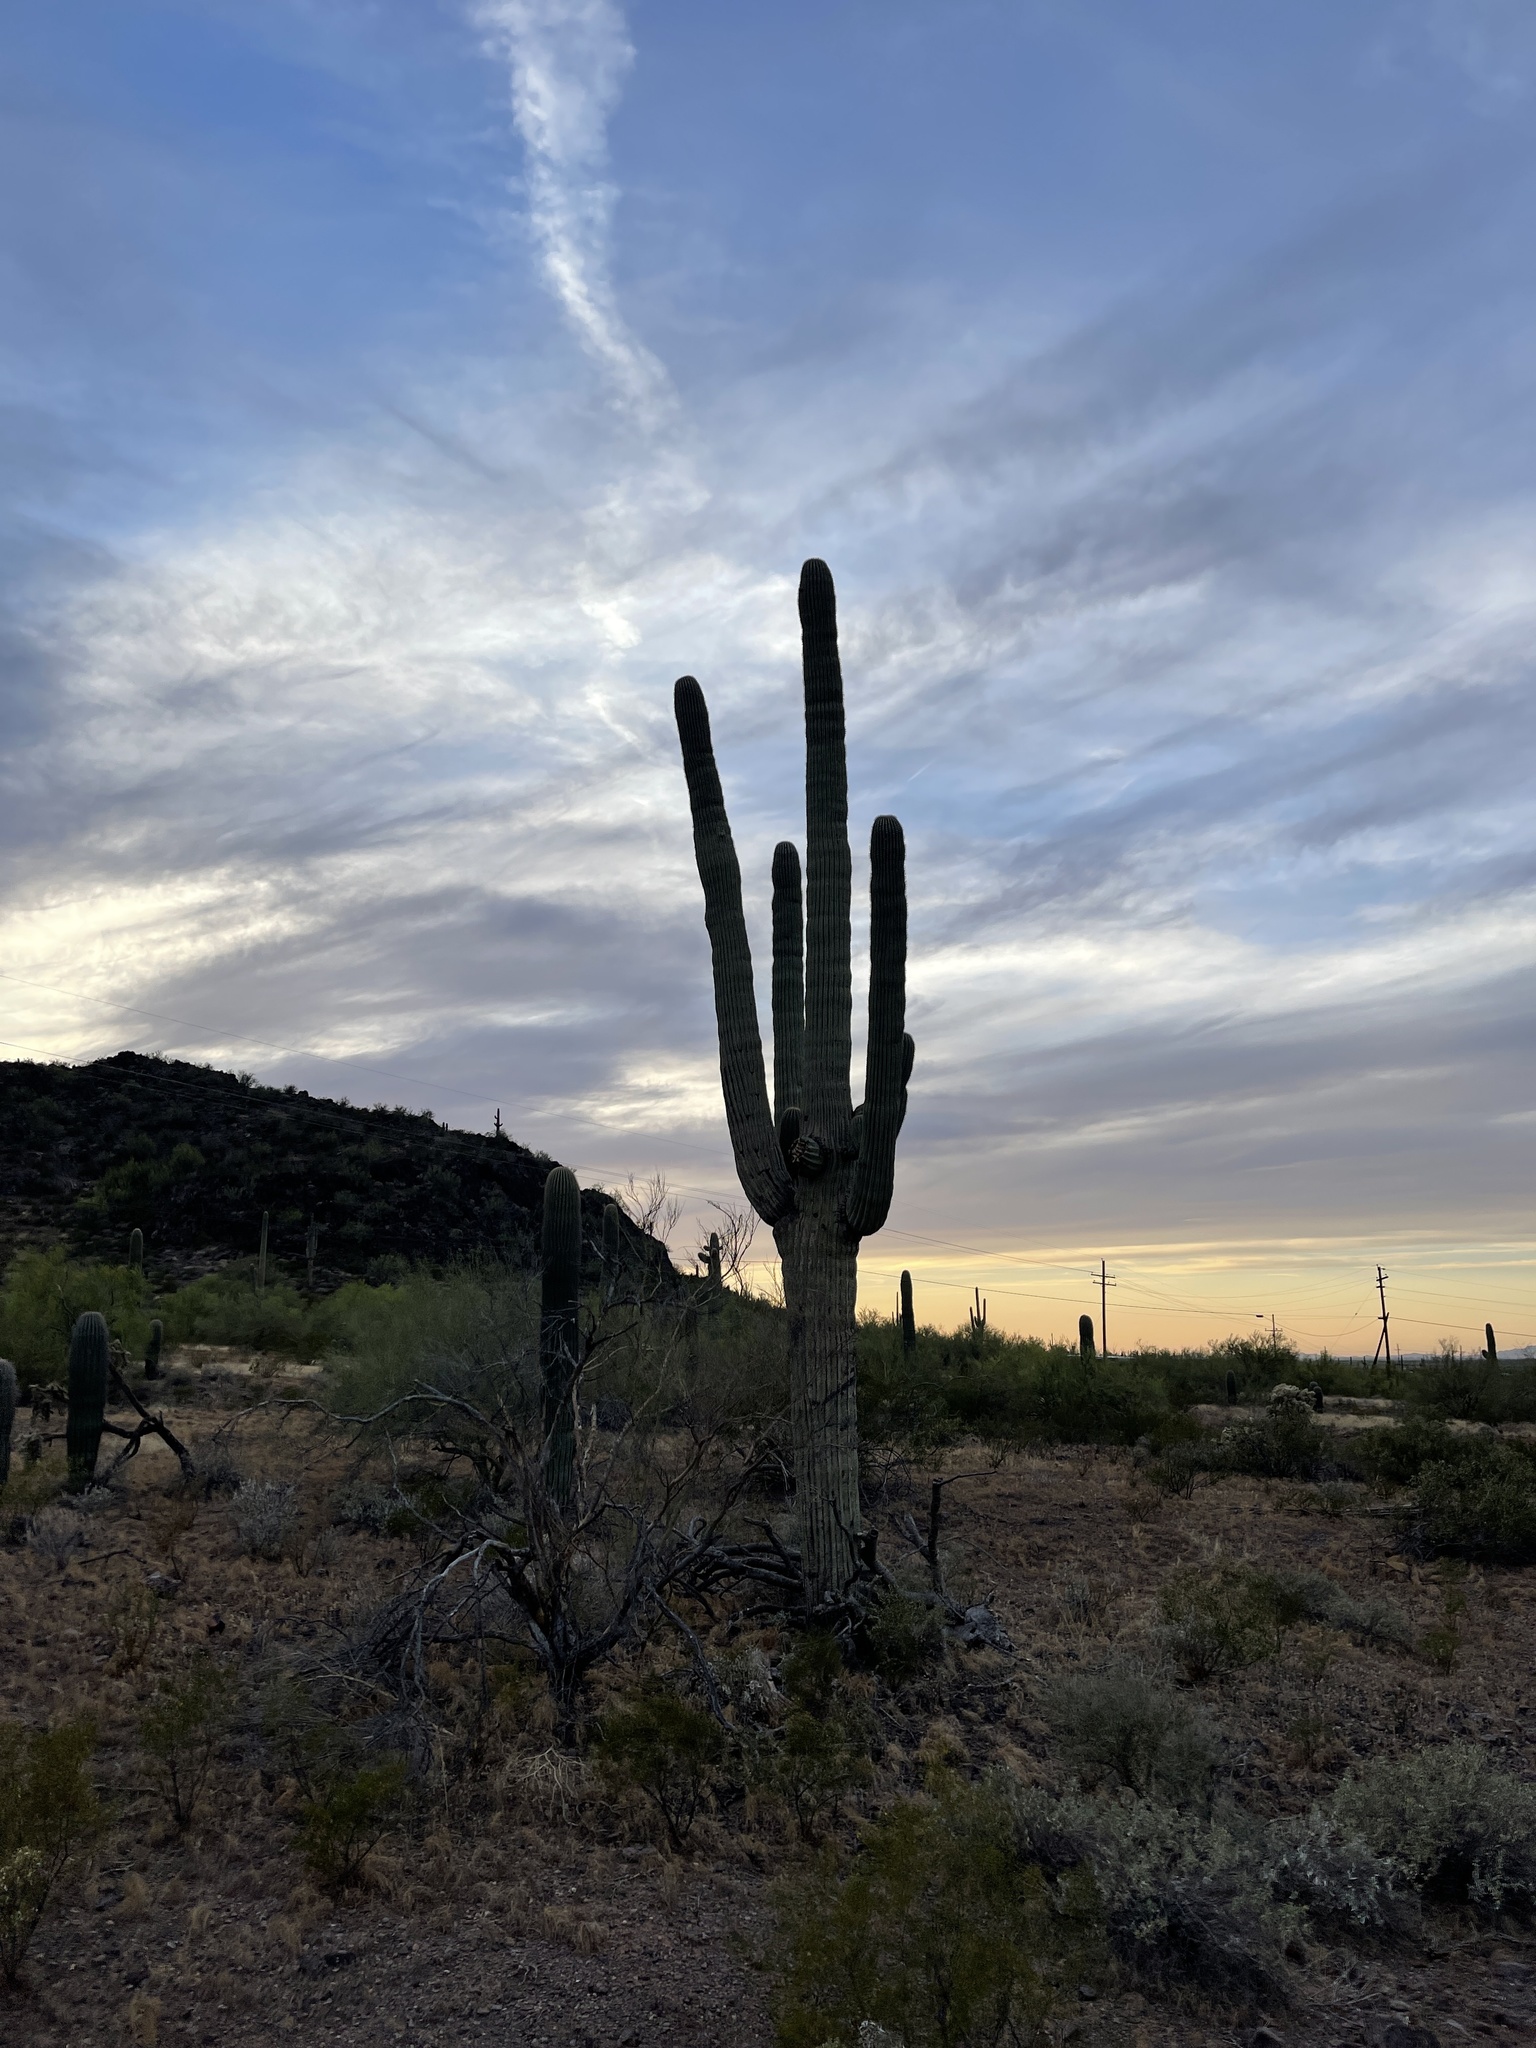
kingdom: Plantae
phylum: Tracheophyta
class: Magnoliopsida
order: Caryophyllales
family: Cactaceae
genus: Carnegiea
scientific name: Carnegiea gigantea
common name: Saguaro
